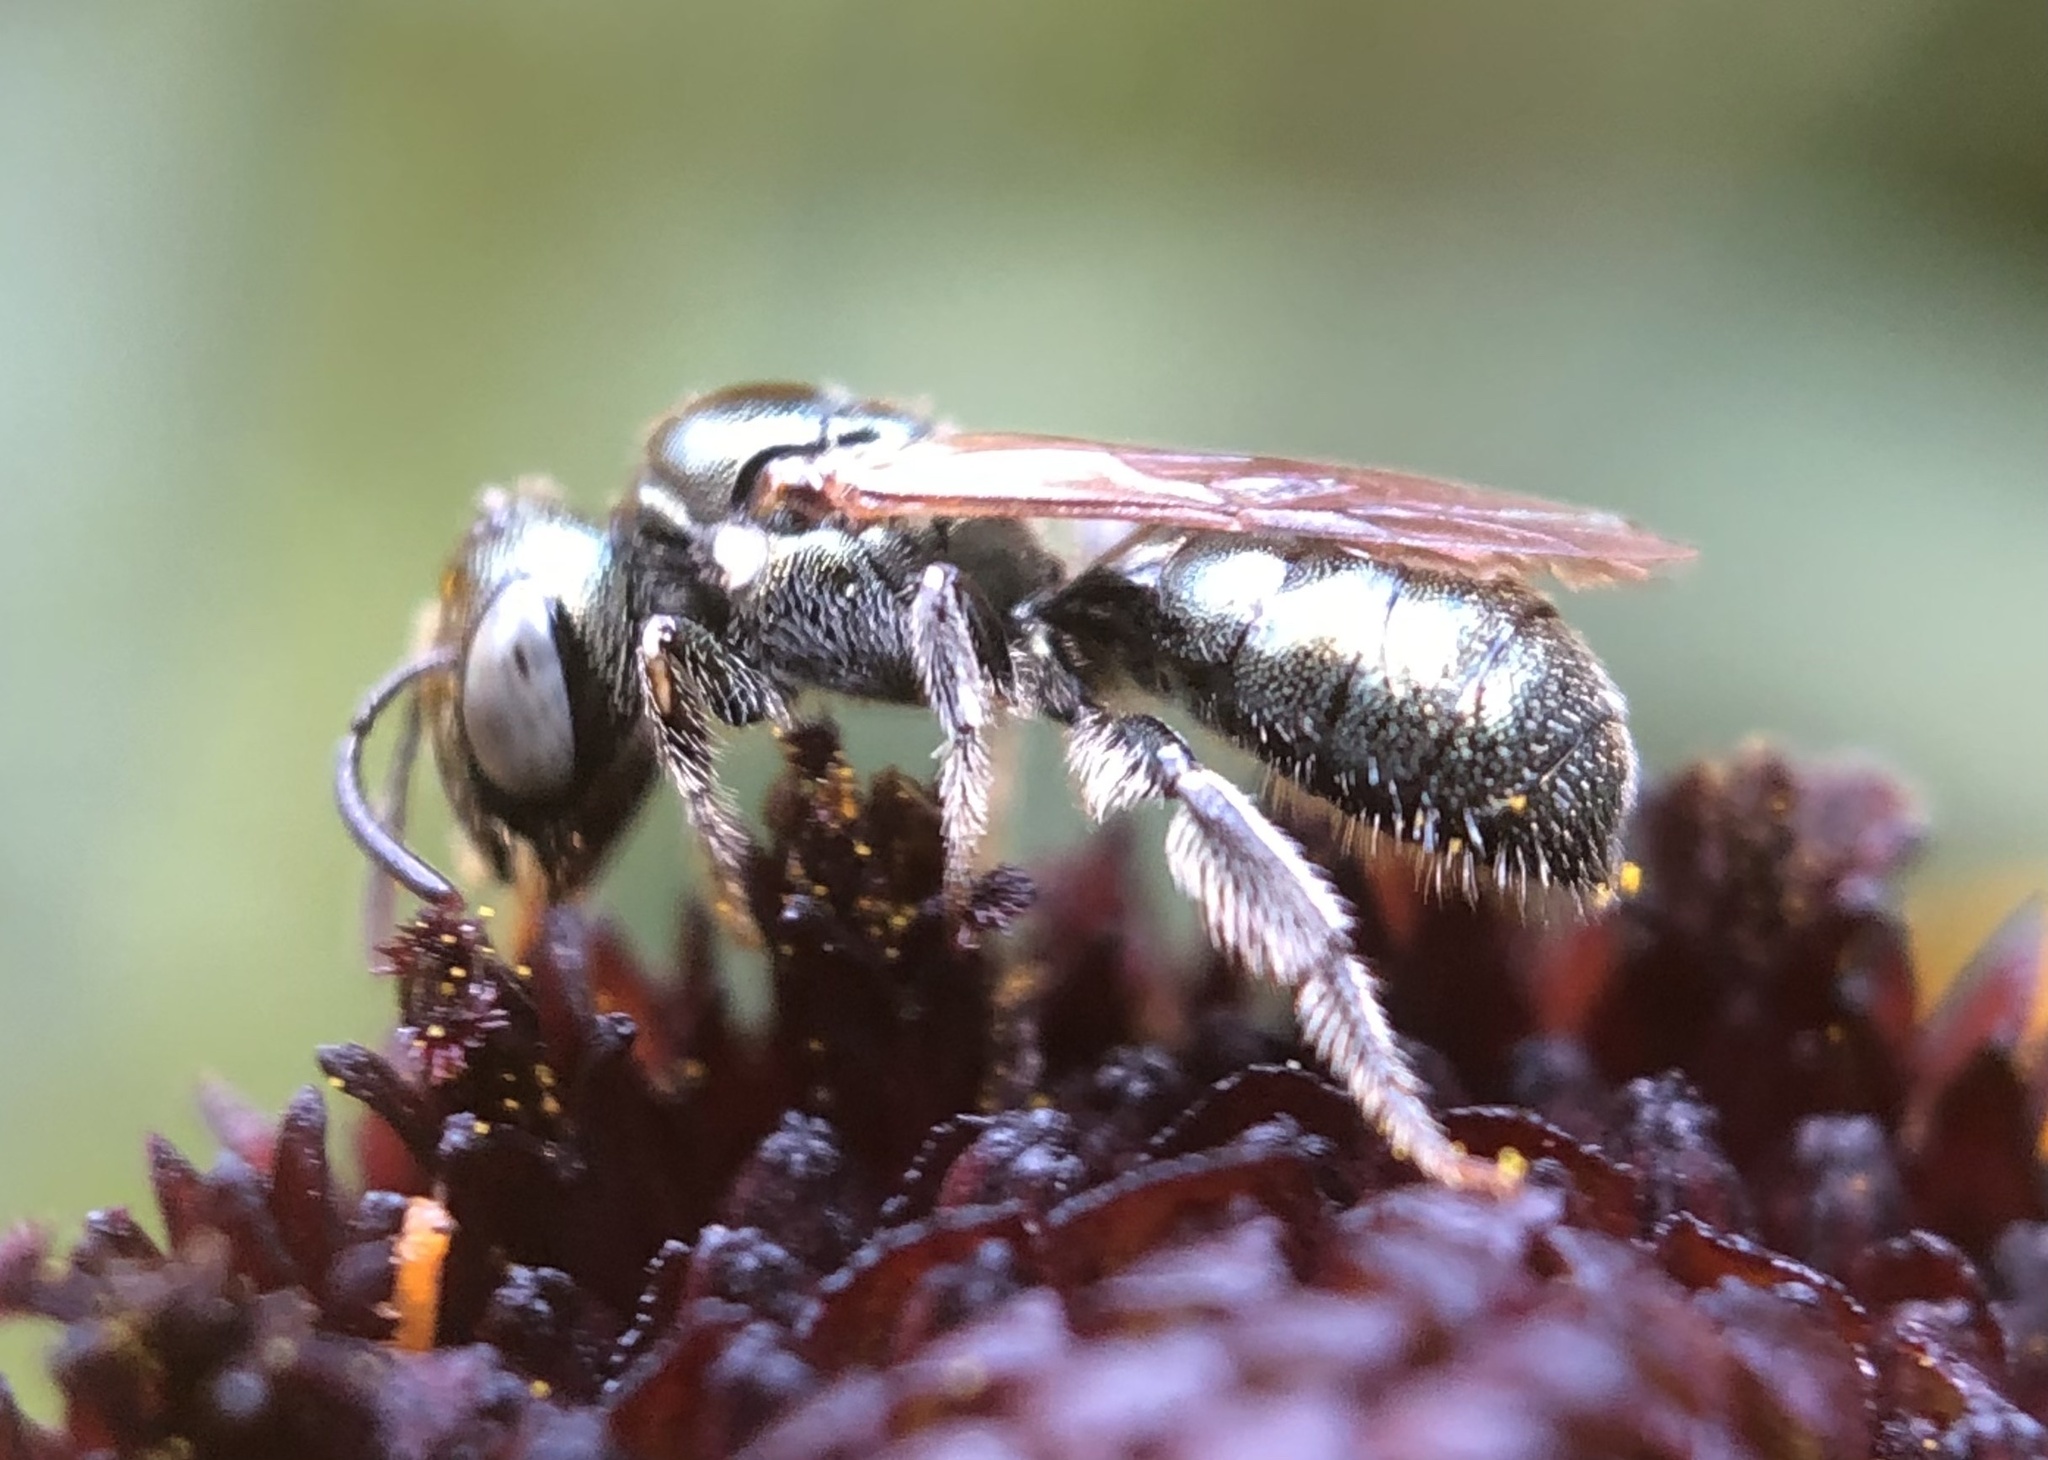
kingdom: Animalia
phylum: Arthropoda
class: Insecta
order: Hymenoptera
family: Apidae
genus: Ceratina
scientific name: Ceratina strenua
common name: Nimble carpenter bee
